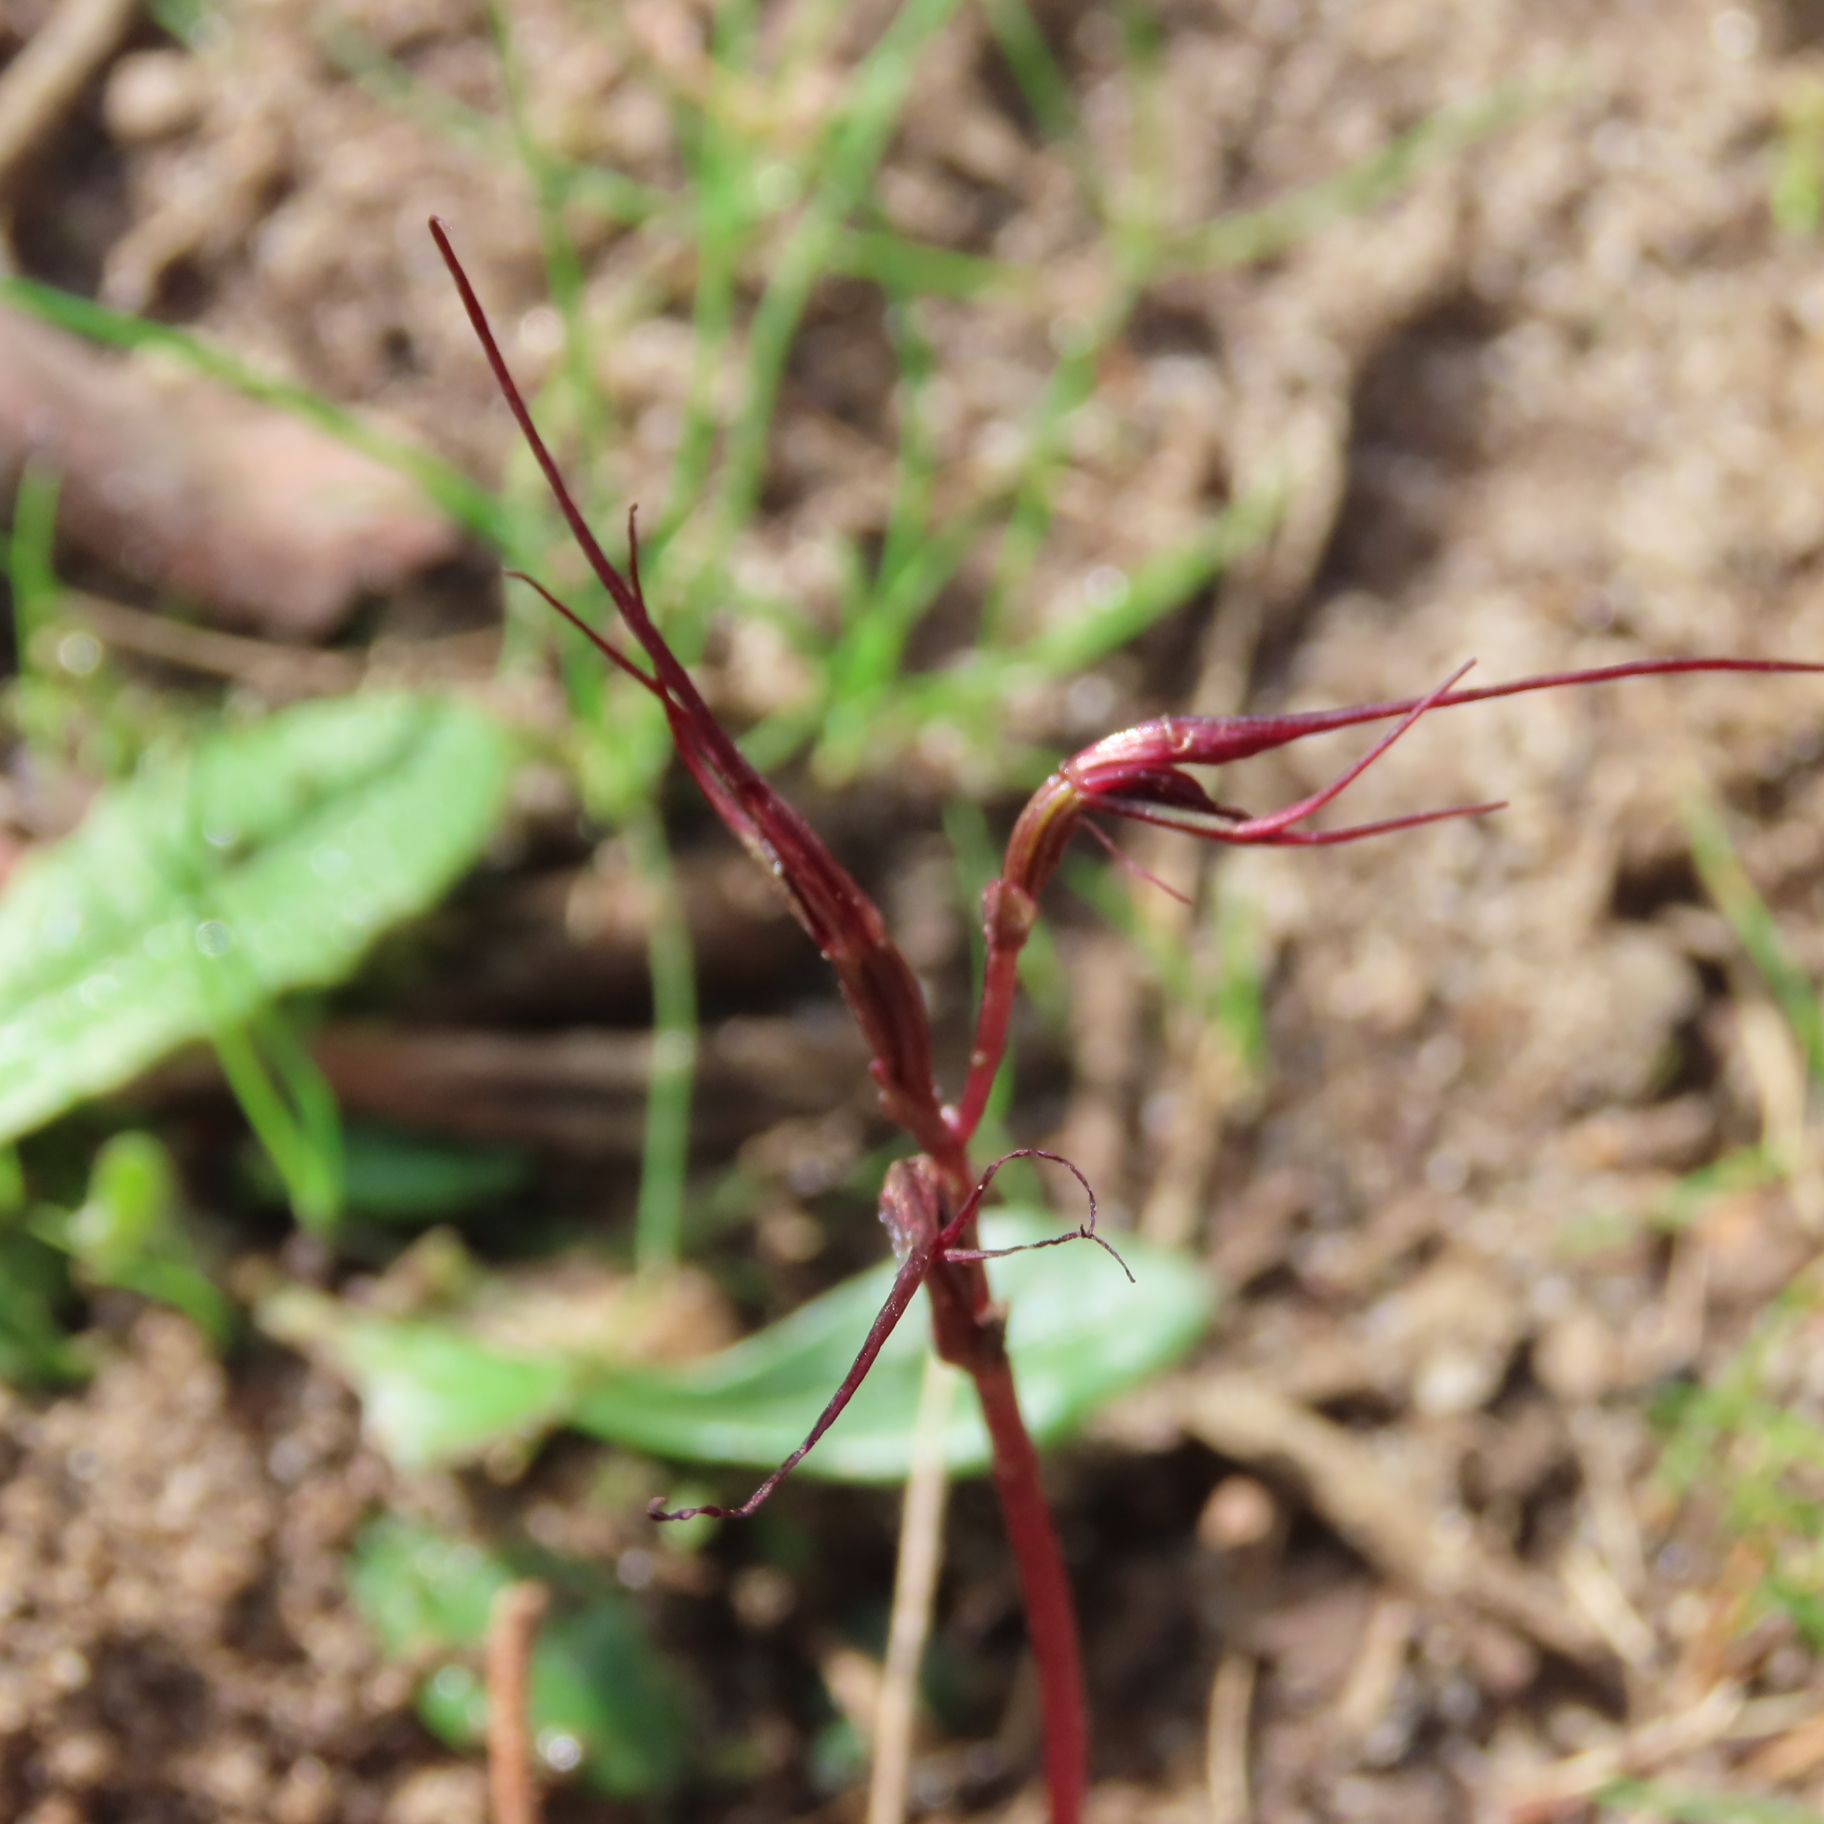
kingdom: Plantae
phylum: Tracheophyta
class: Liliopsida
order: Asparagales
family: Orchidaceae
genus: Acianthus
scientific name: Acianthus caudatus
